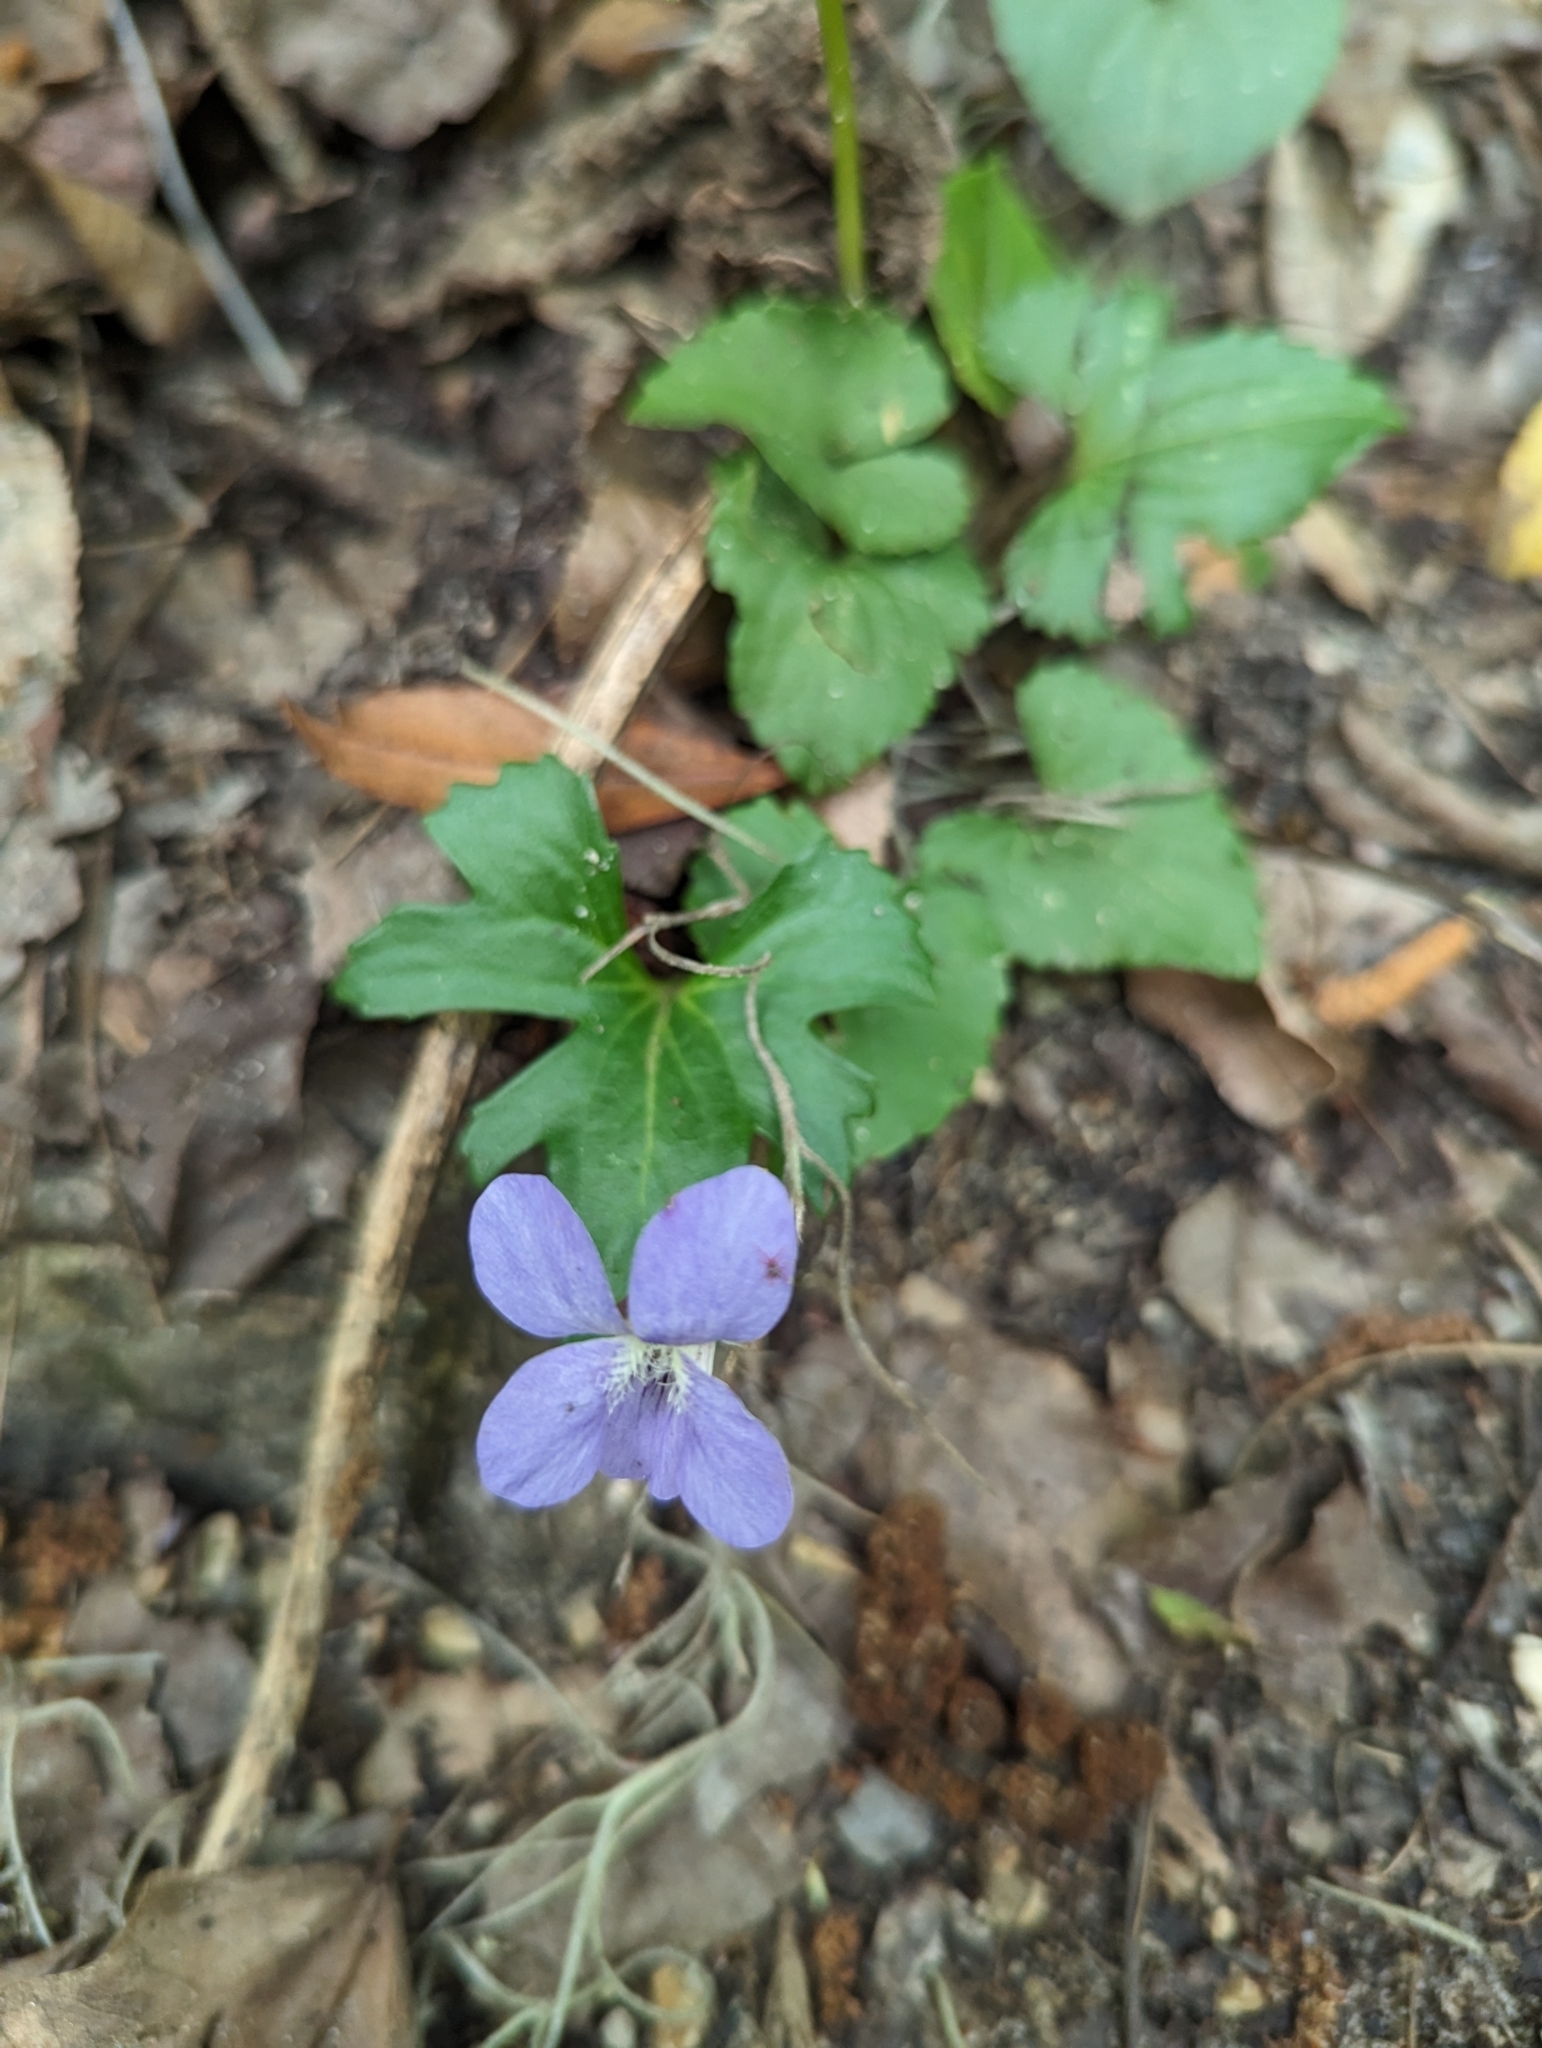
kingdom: Plantae
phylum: Tracheophyta
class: Magnoliopsida
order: Malpighiales
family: Violaceae
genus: Viola
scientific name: Viola palmata
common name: Early blue violet
